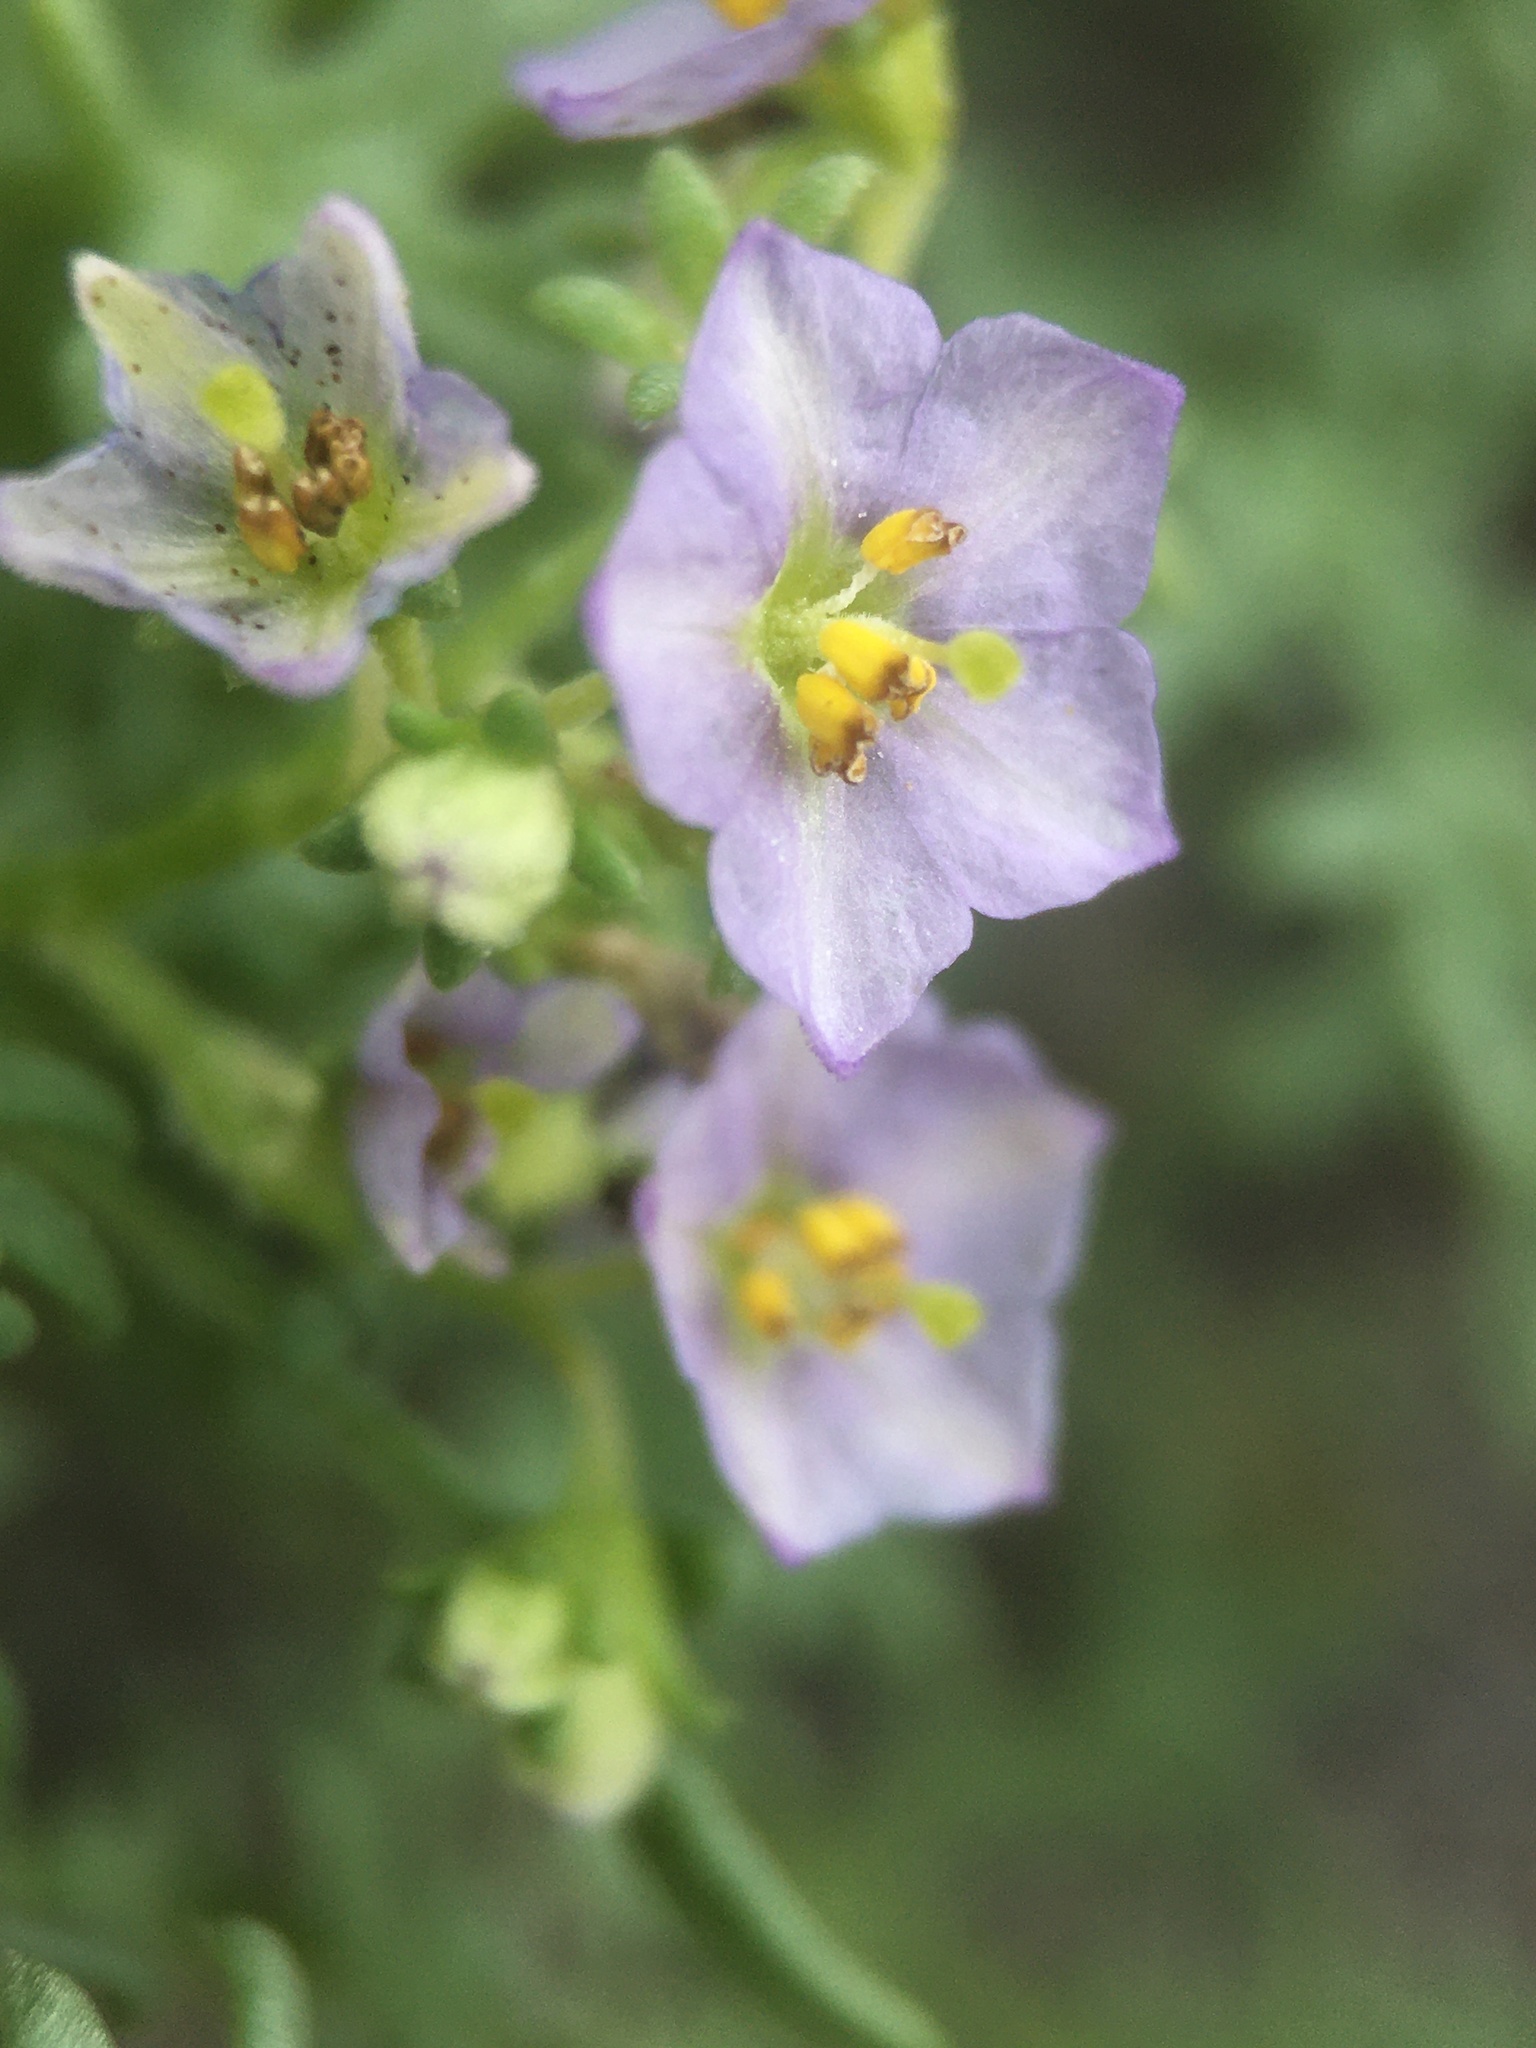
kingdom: Plantae
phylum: Tracheophyta
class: Magnoliopsida
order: Solanales
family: Solanaceae
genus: Solanum
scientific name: Solanum brachyantherum
